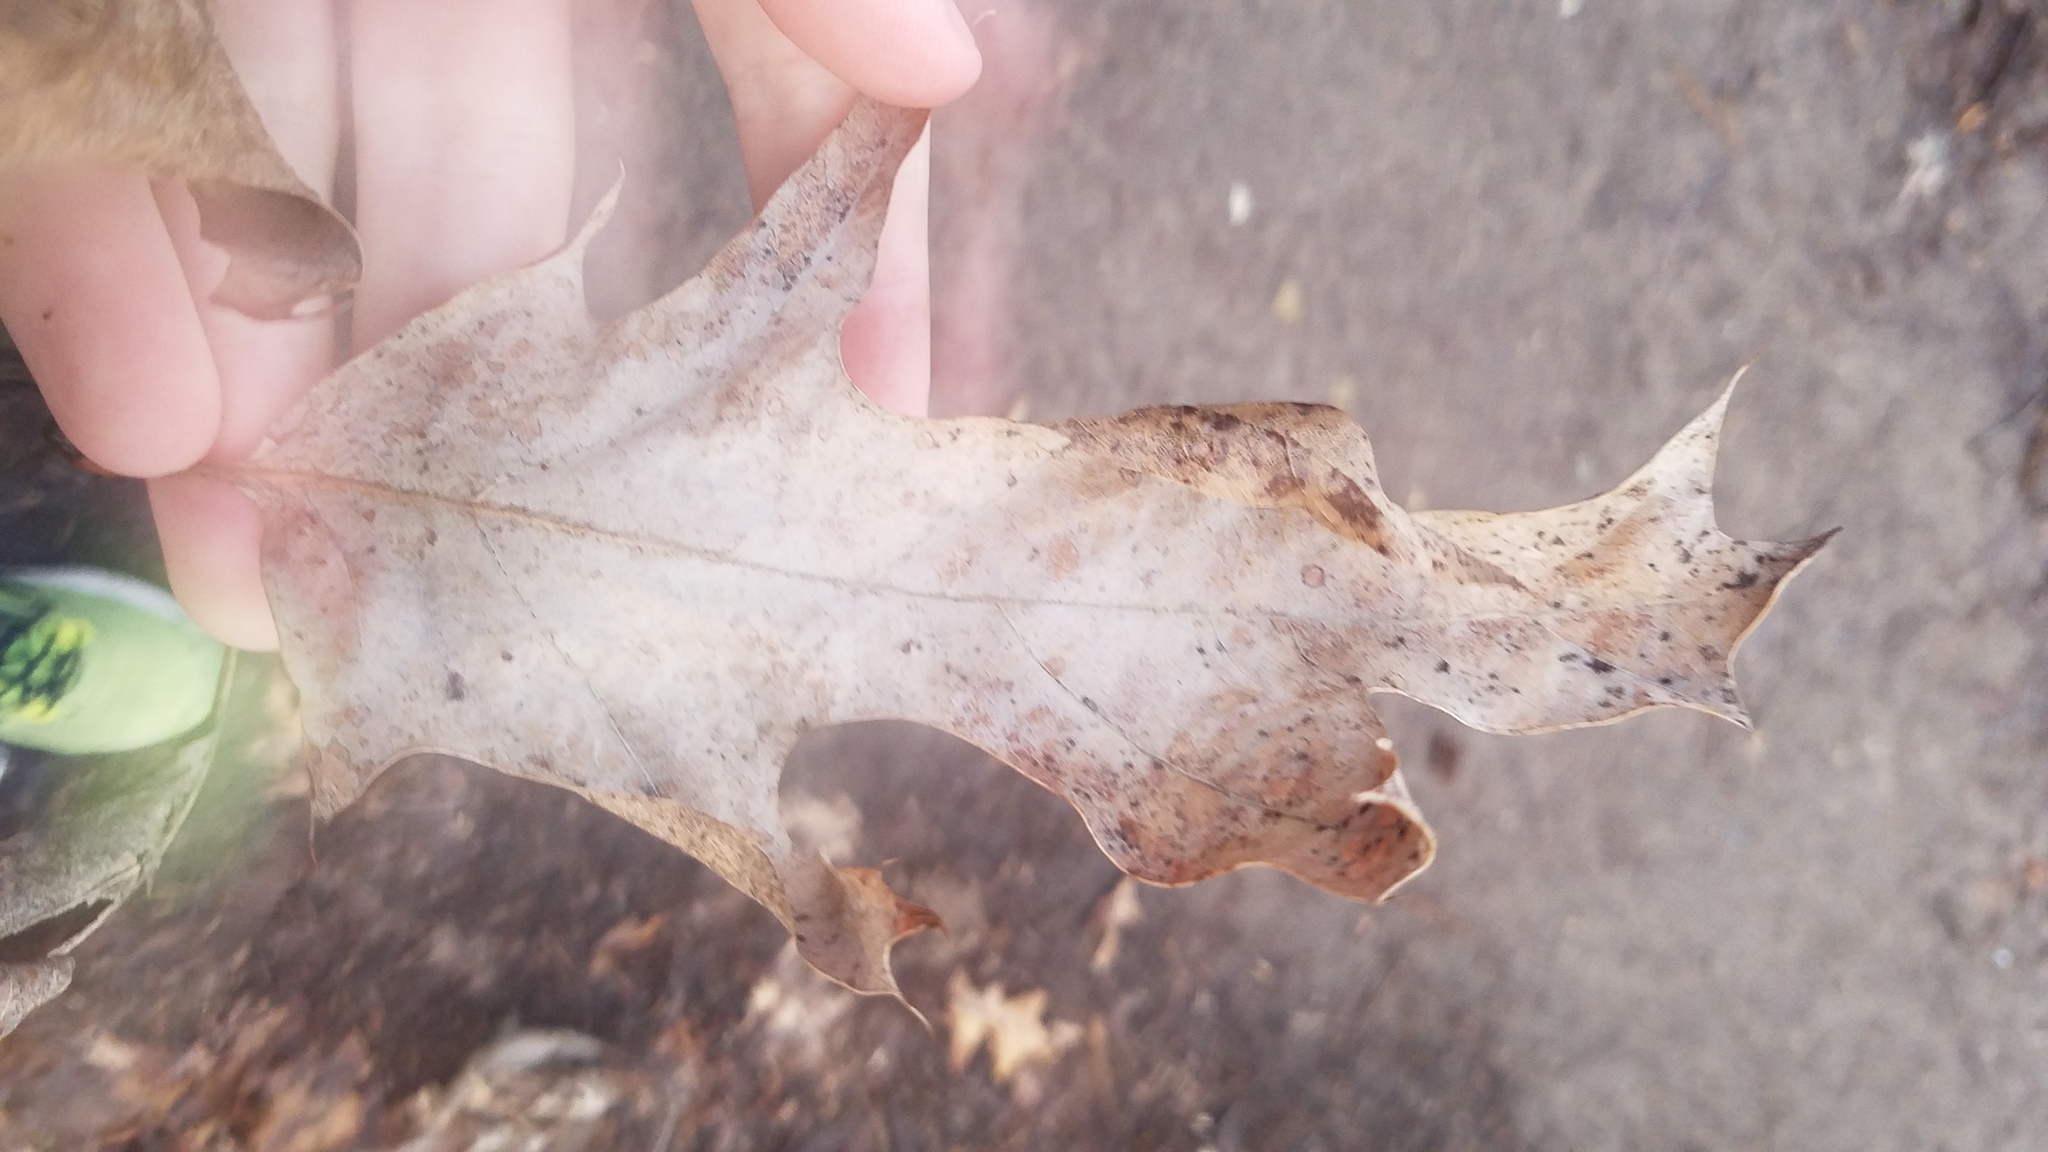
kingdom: Animalia
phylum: Arthropoda
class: Insecta
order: Hymenoptera
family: Cynipidae
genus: Melikaiella
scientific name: Melikaiella tumifica
